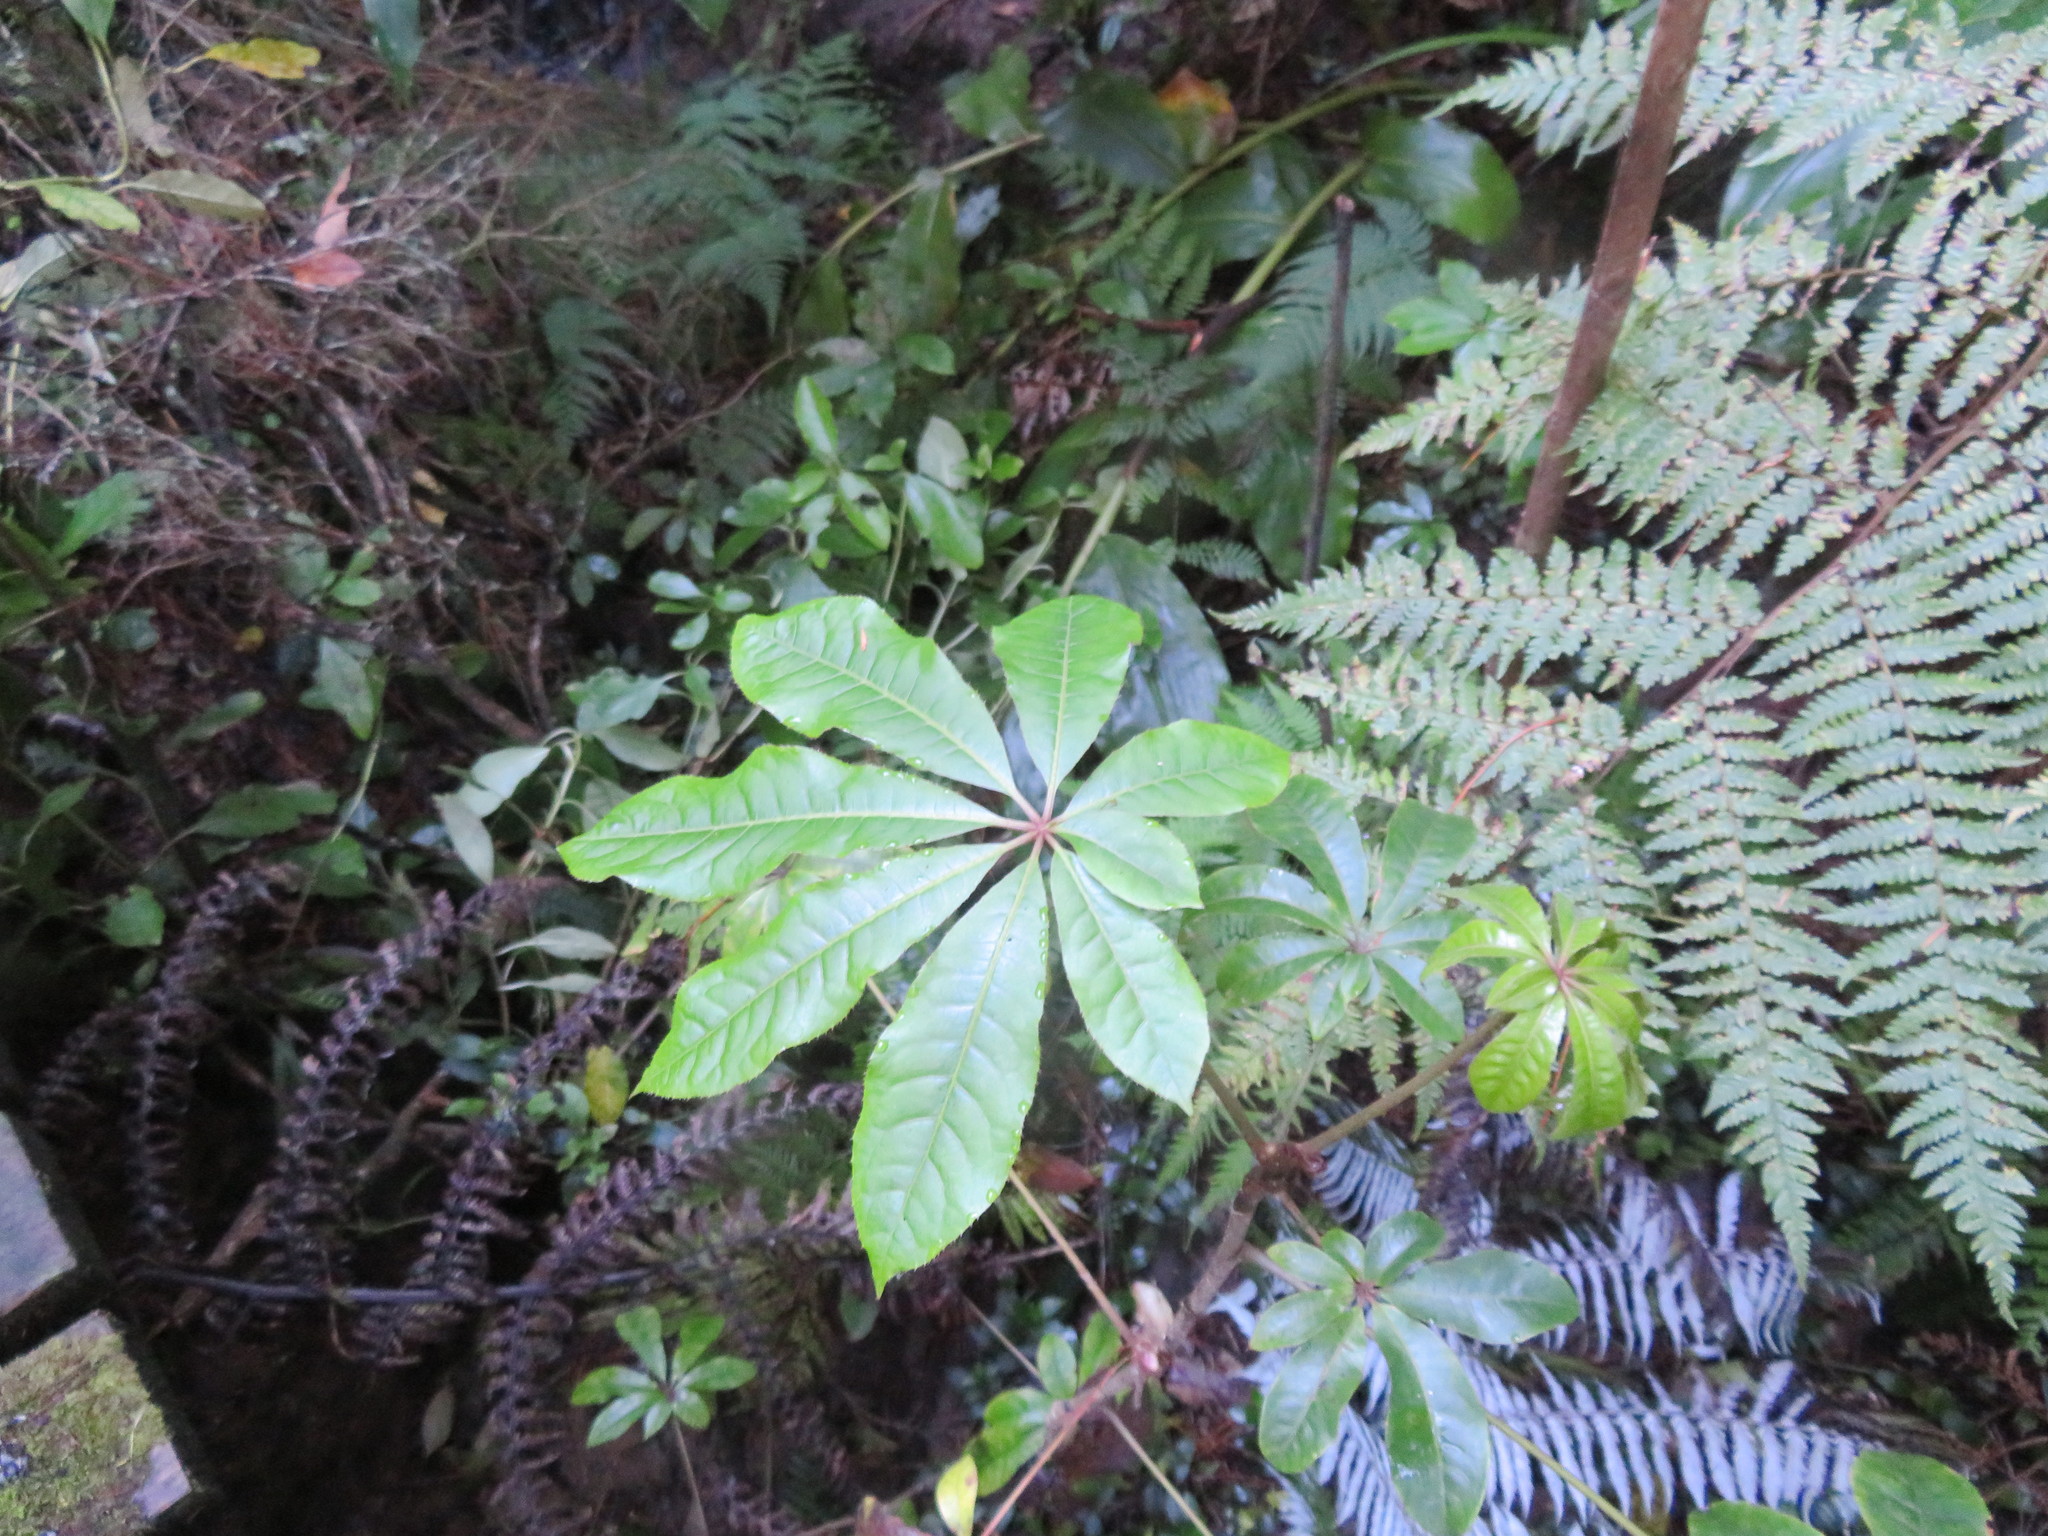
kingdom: Plantae
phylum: Tracheophyta
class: Magnoliopsida
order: Apiales
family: Araliaceae
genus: Schefflera
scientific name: Schefflera digitata
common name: Pate
